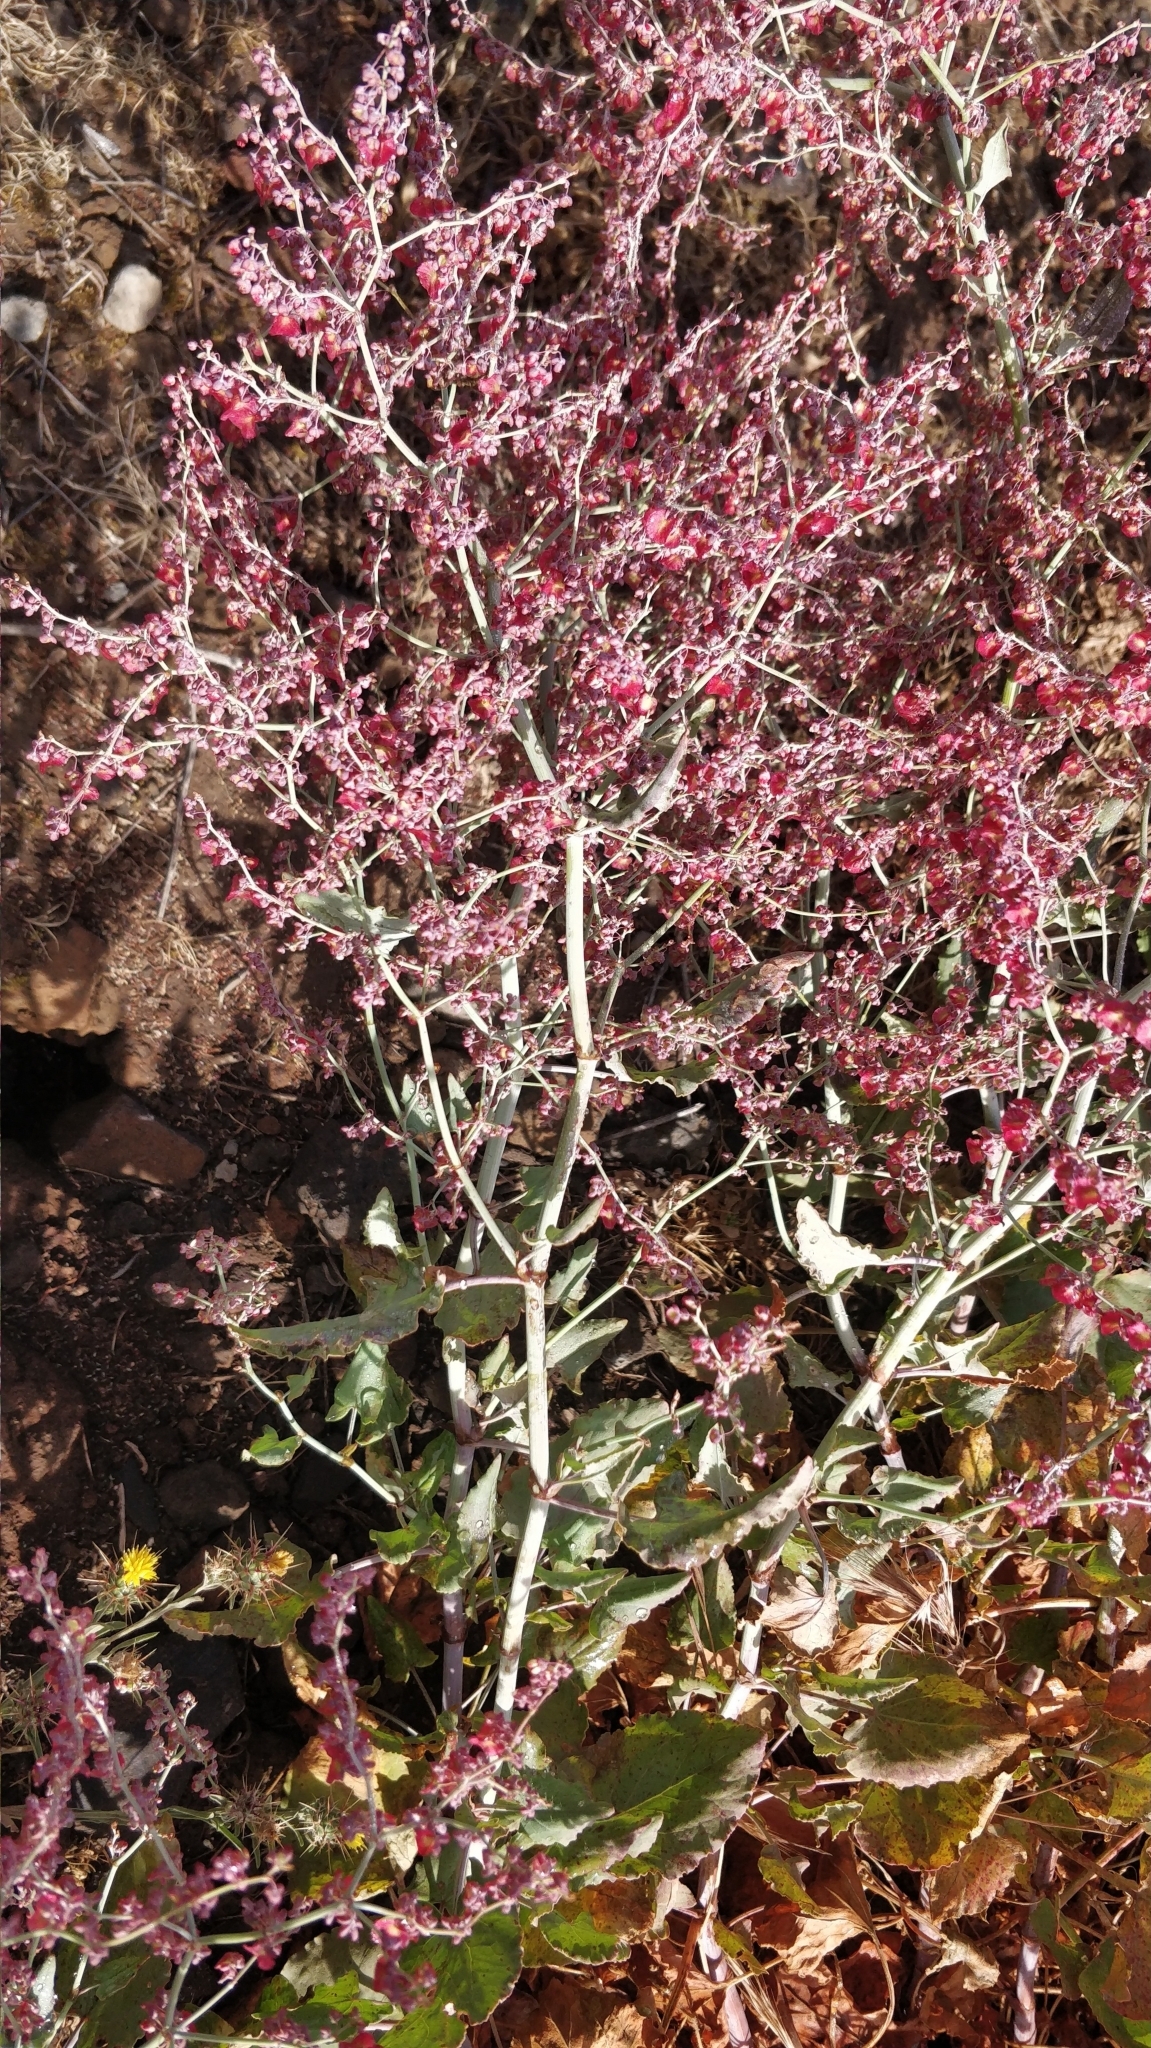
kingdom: Plantae
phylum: Tracheophyta
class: Magnoliopsida
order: Caryophyllales
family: Polygonaceae
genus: Rumex
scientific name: Rumex maderensis
